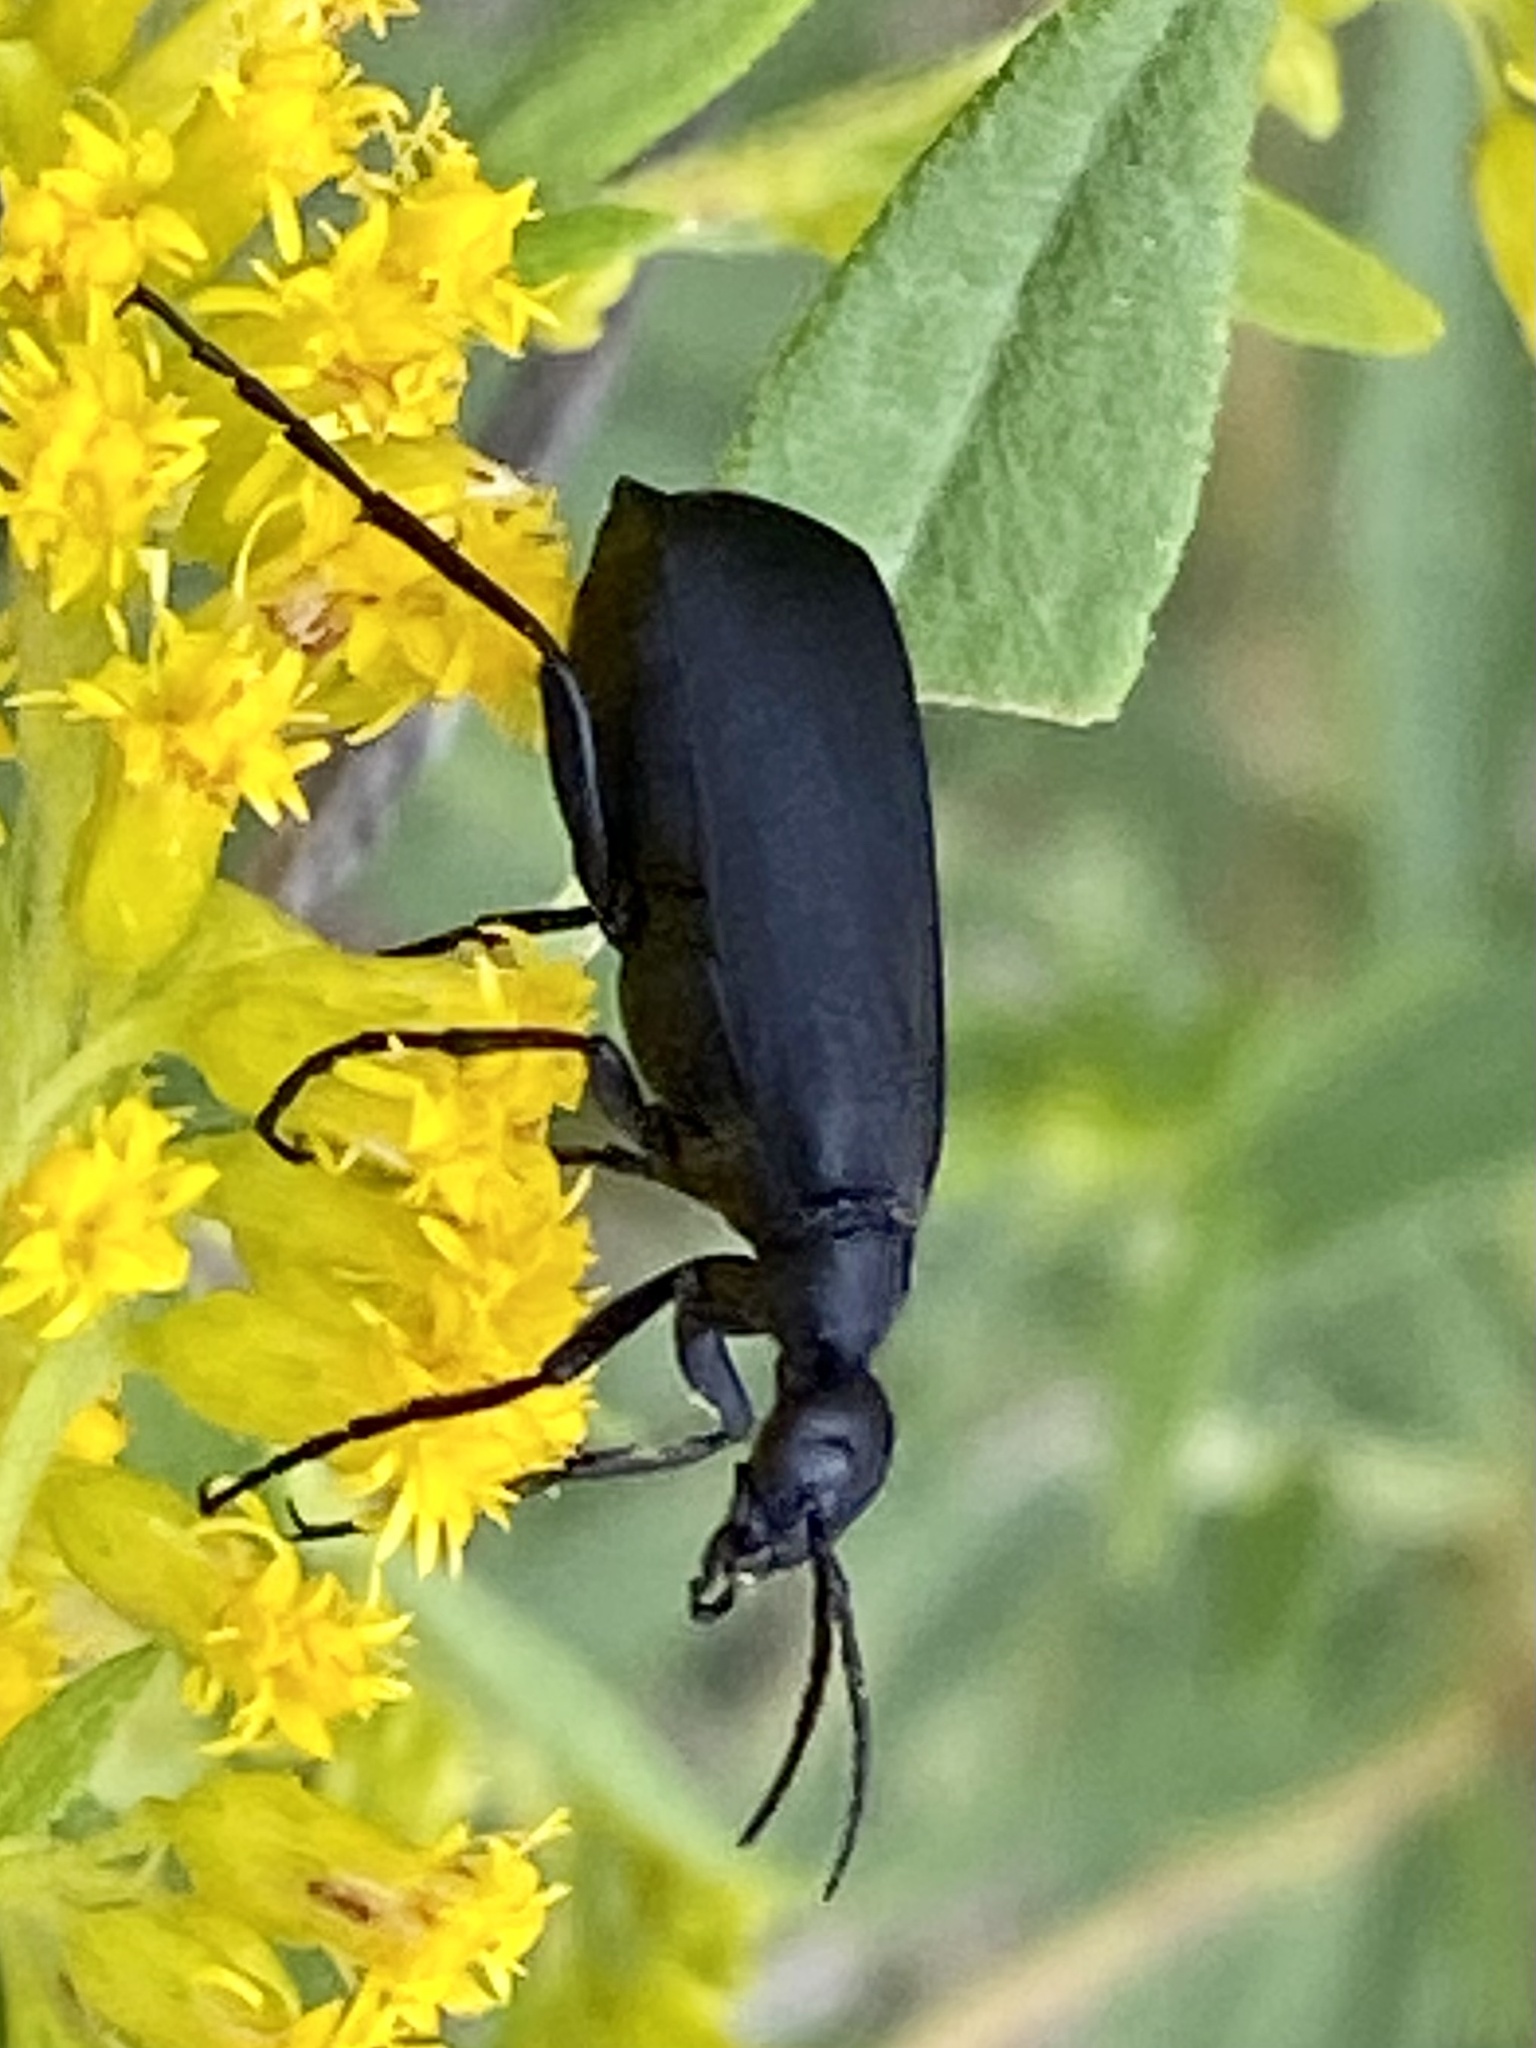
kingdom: Animalia
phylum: Arthropoda
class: Insecta
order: Coleoptera
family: Meloidae
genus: Epicauta
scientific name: Epicauta pensylvanica
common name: Black blister beetle
